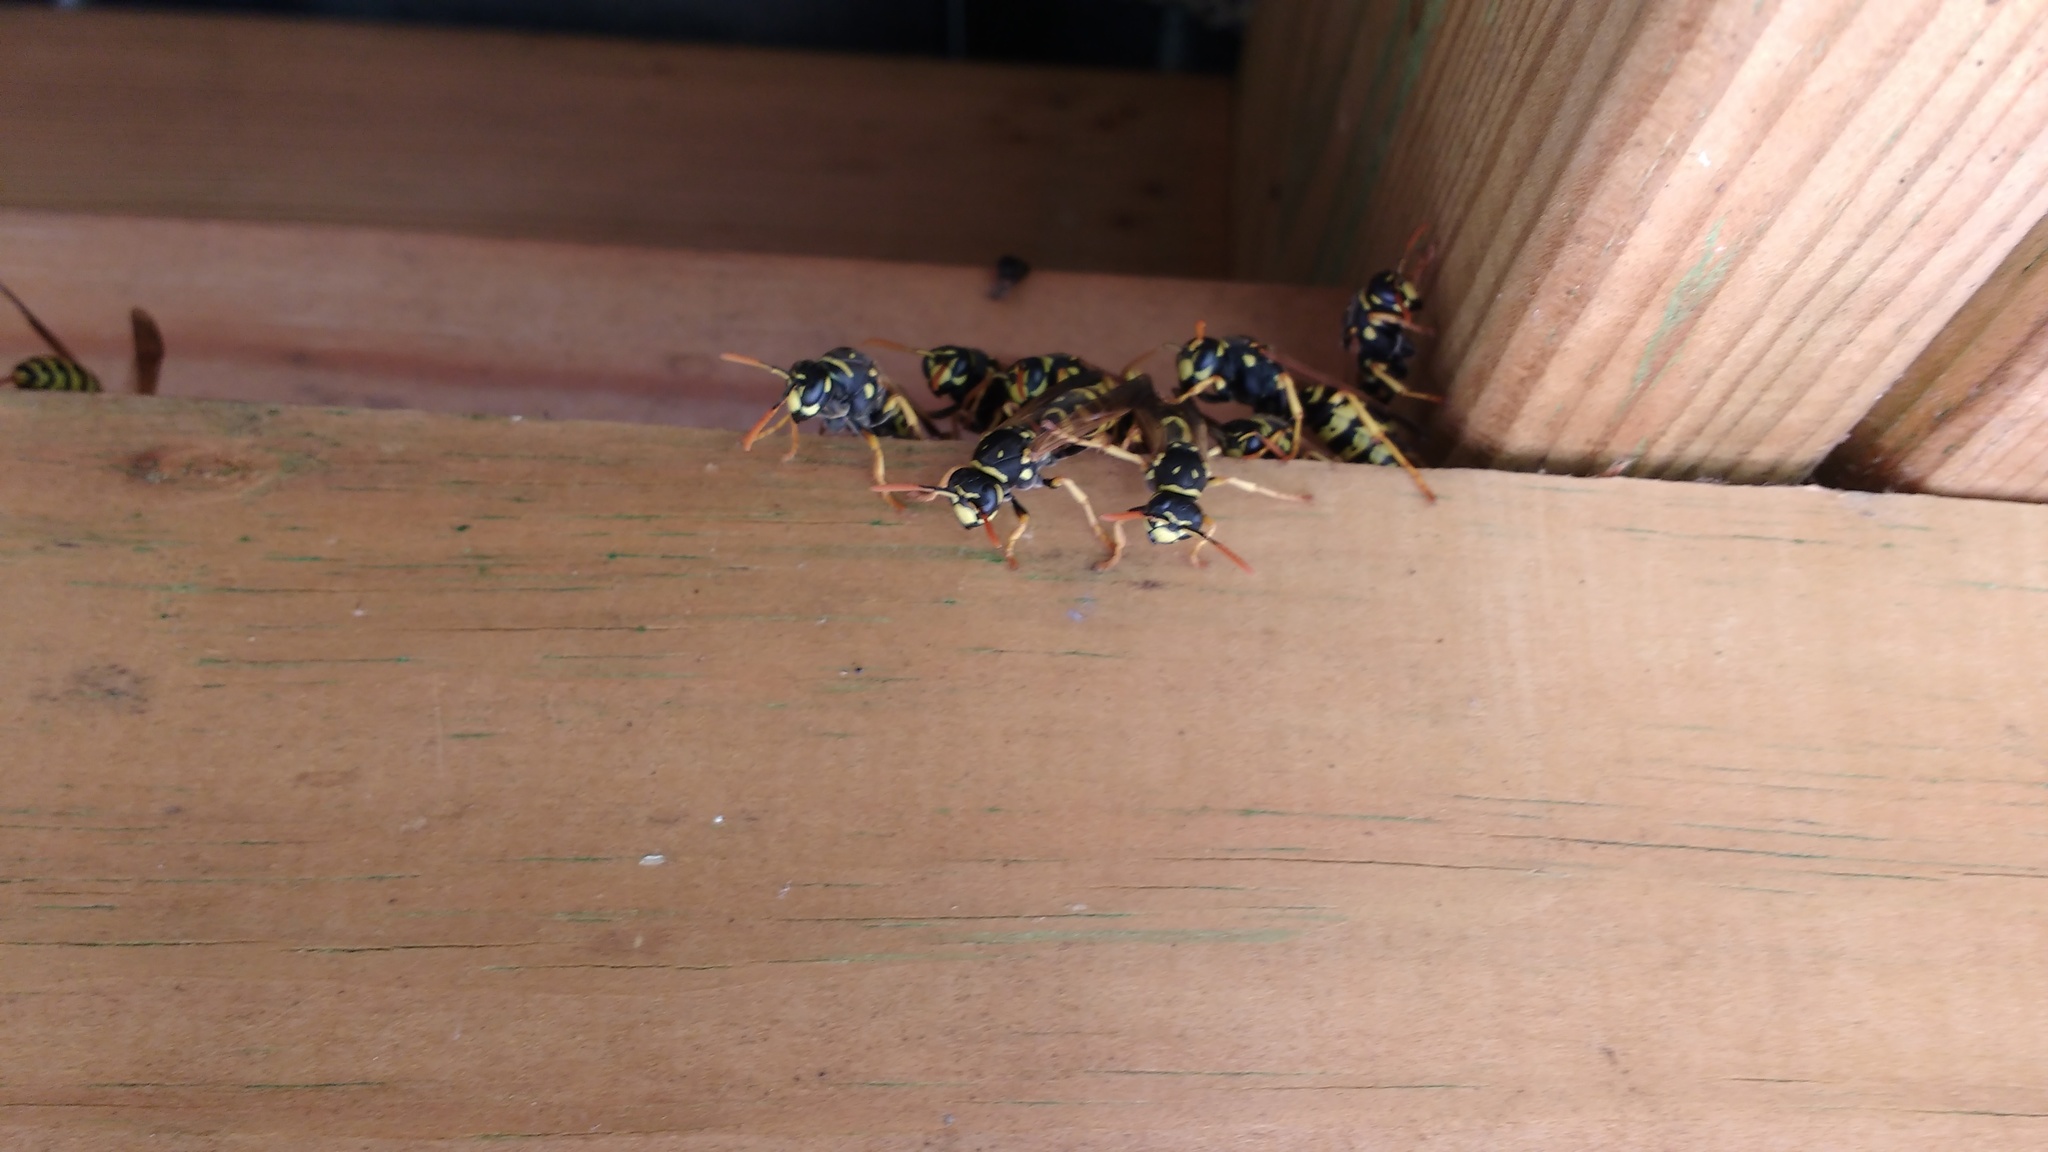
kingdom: Animalia
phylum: Arthropoda
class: Insecta
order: Hymenoptera
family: Eumenidae
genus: Polistes
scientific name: Polistes dominula
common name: Paper wasp
